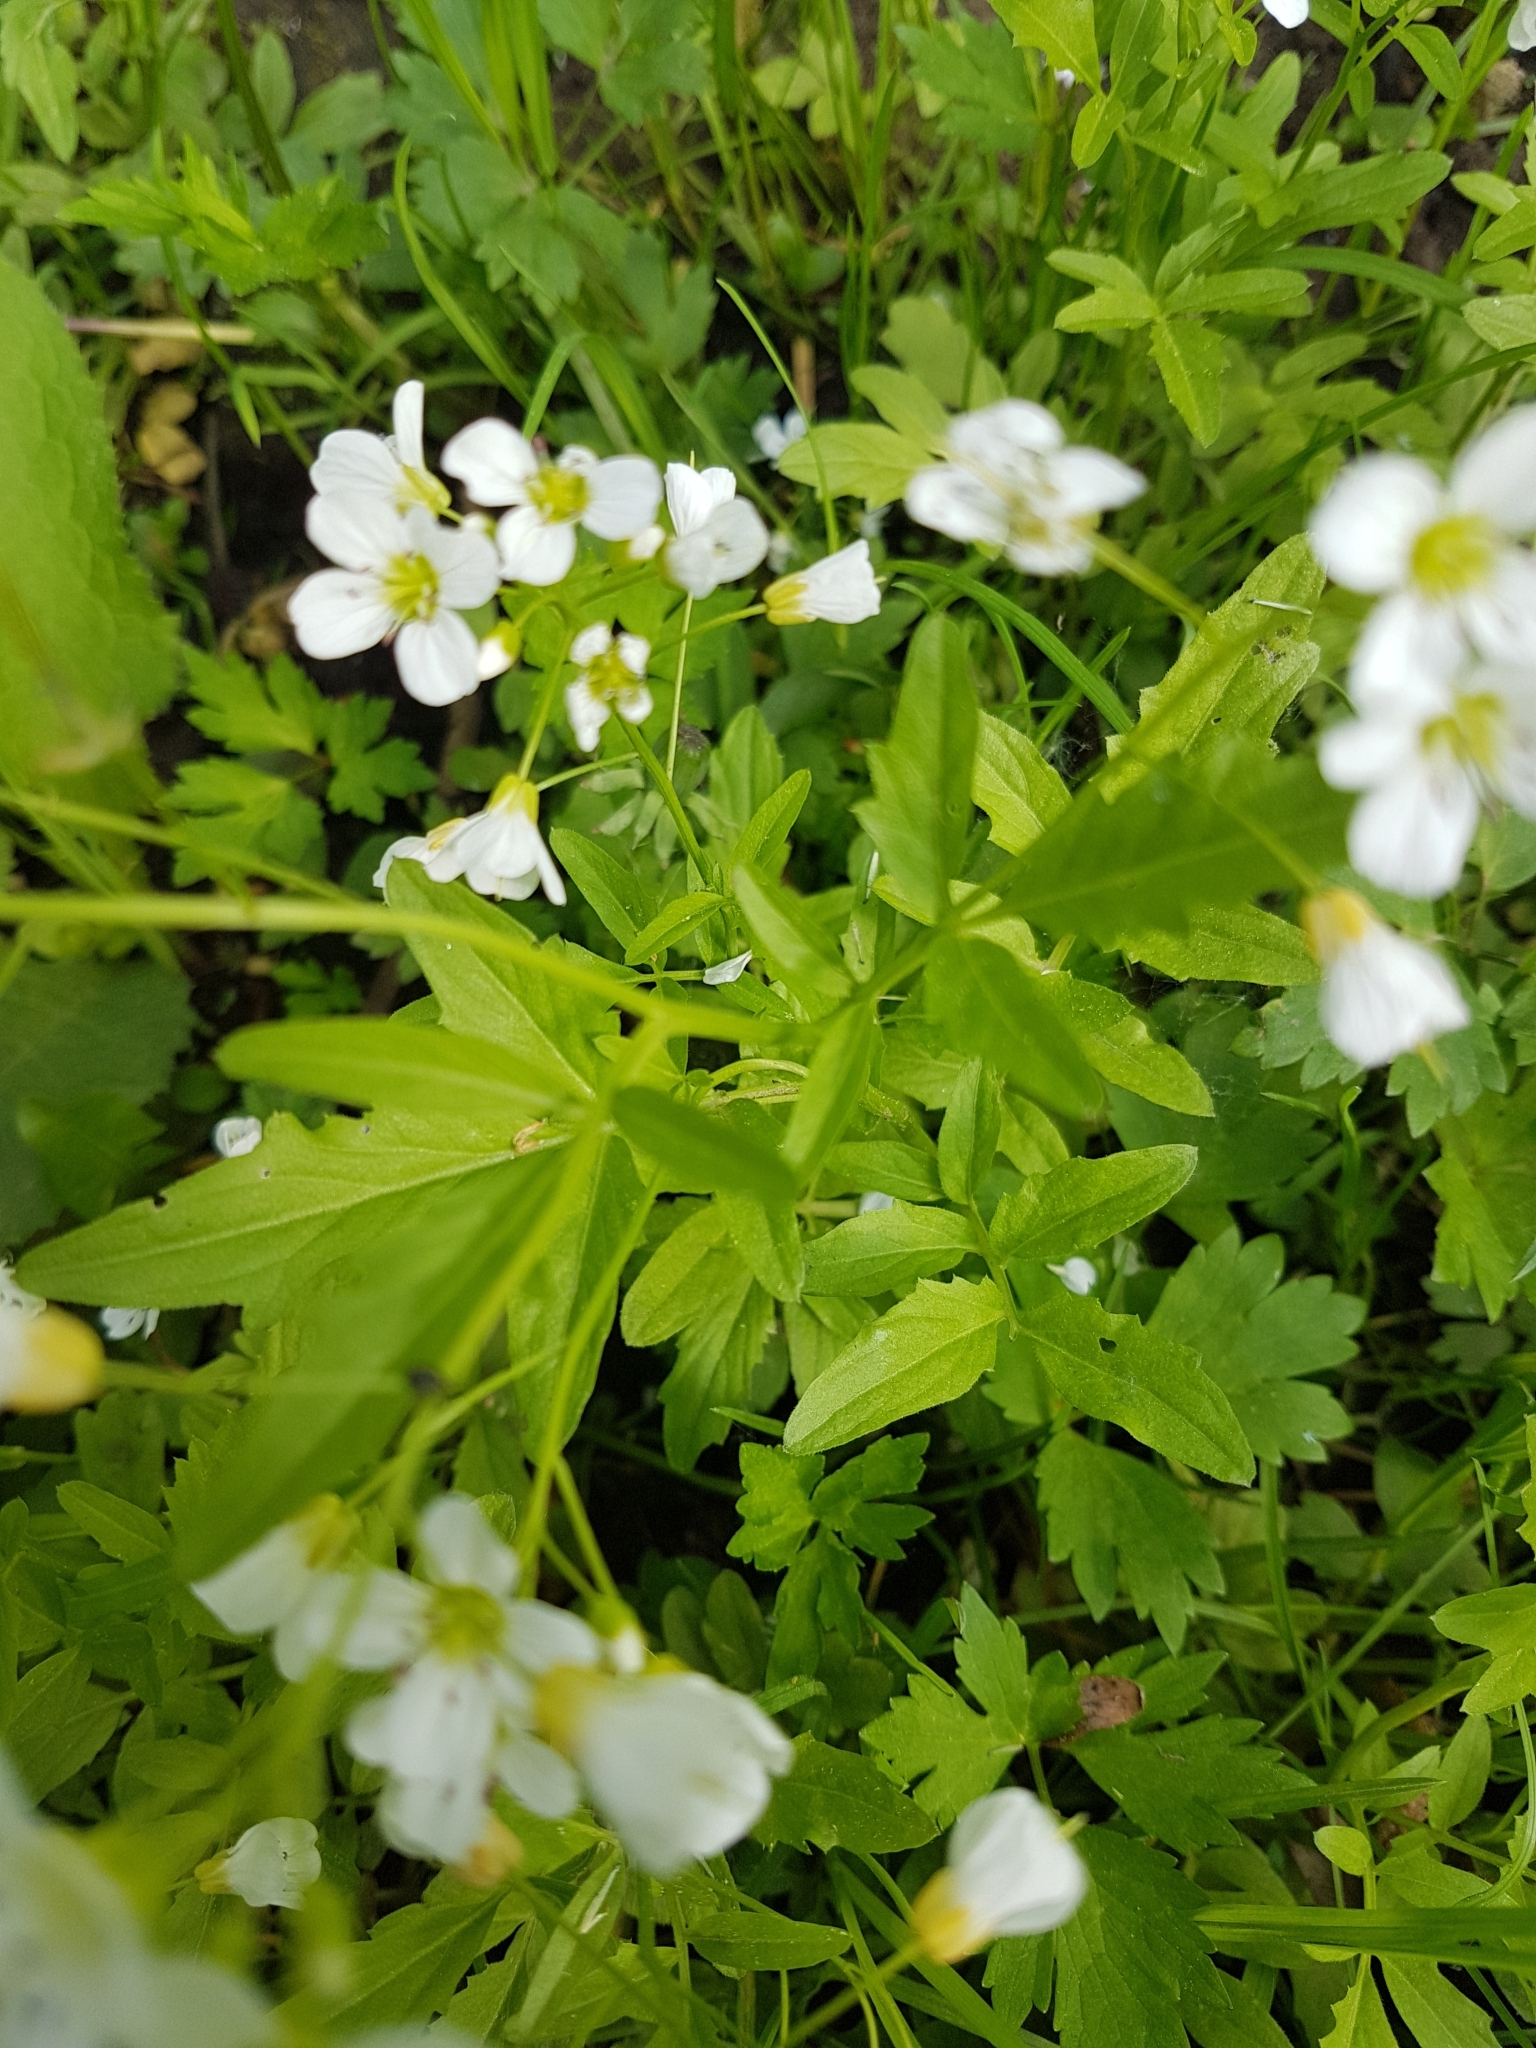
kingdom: Plantae
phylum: Tracheophyta
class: Magnoliopsida
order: Brassicales
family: Brassicaceae
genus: Cardamine
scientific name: Cardamine amara
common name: Large bitter-cress
